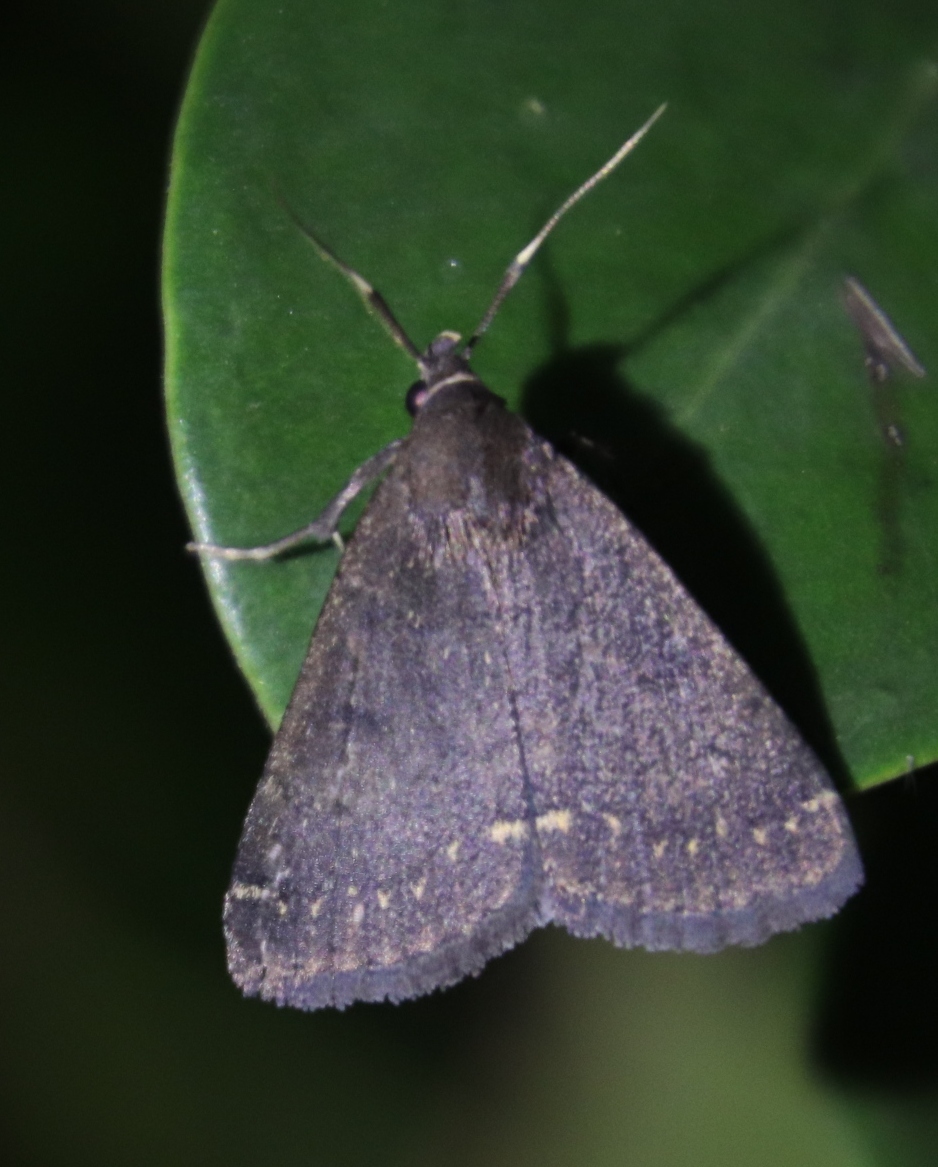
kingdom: Animalia
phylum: Arthropoda
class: Insecta
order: Lepidoptera
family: Erebidae
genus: Nodaria
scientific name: Nodaria nodosalis
